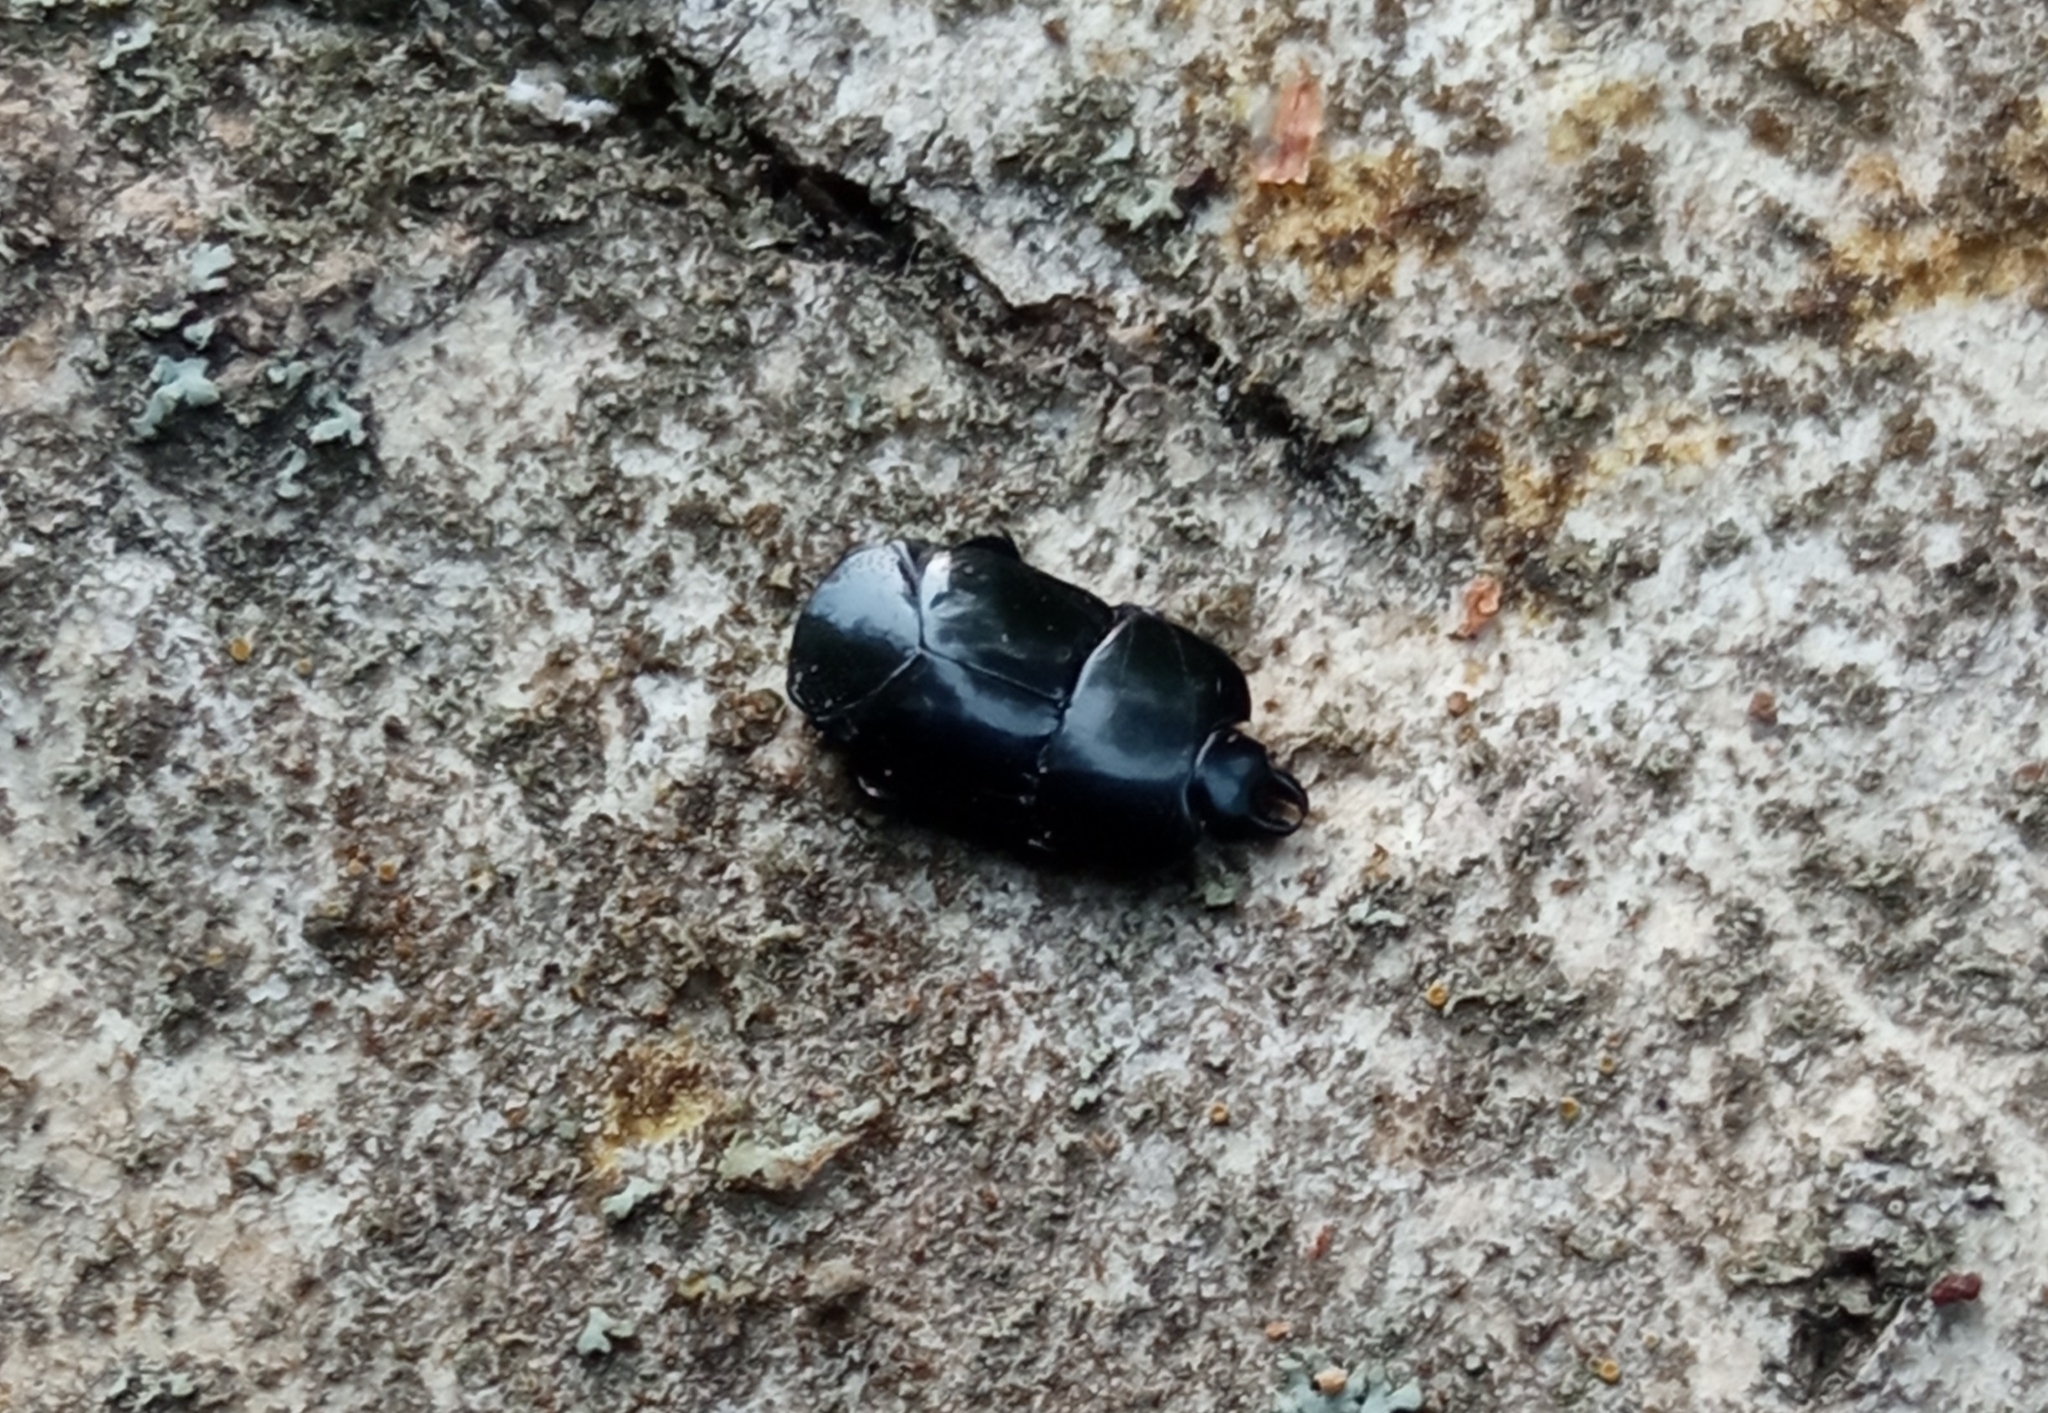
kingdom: Animalia
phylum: Arthropoda
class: Insecta
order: Coleoptera
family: Histeridae
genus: Hololepta
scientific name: Hololepta plana
